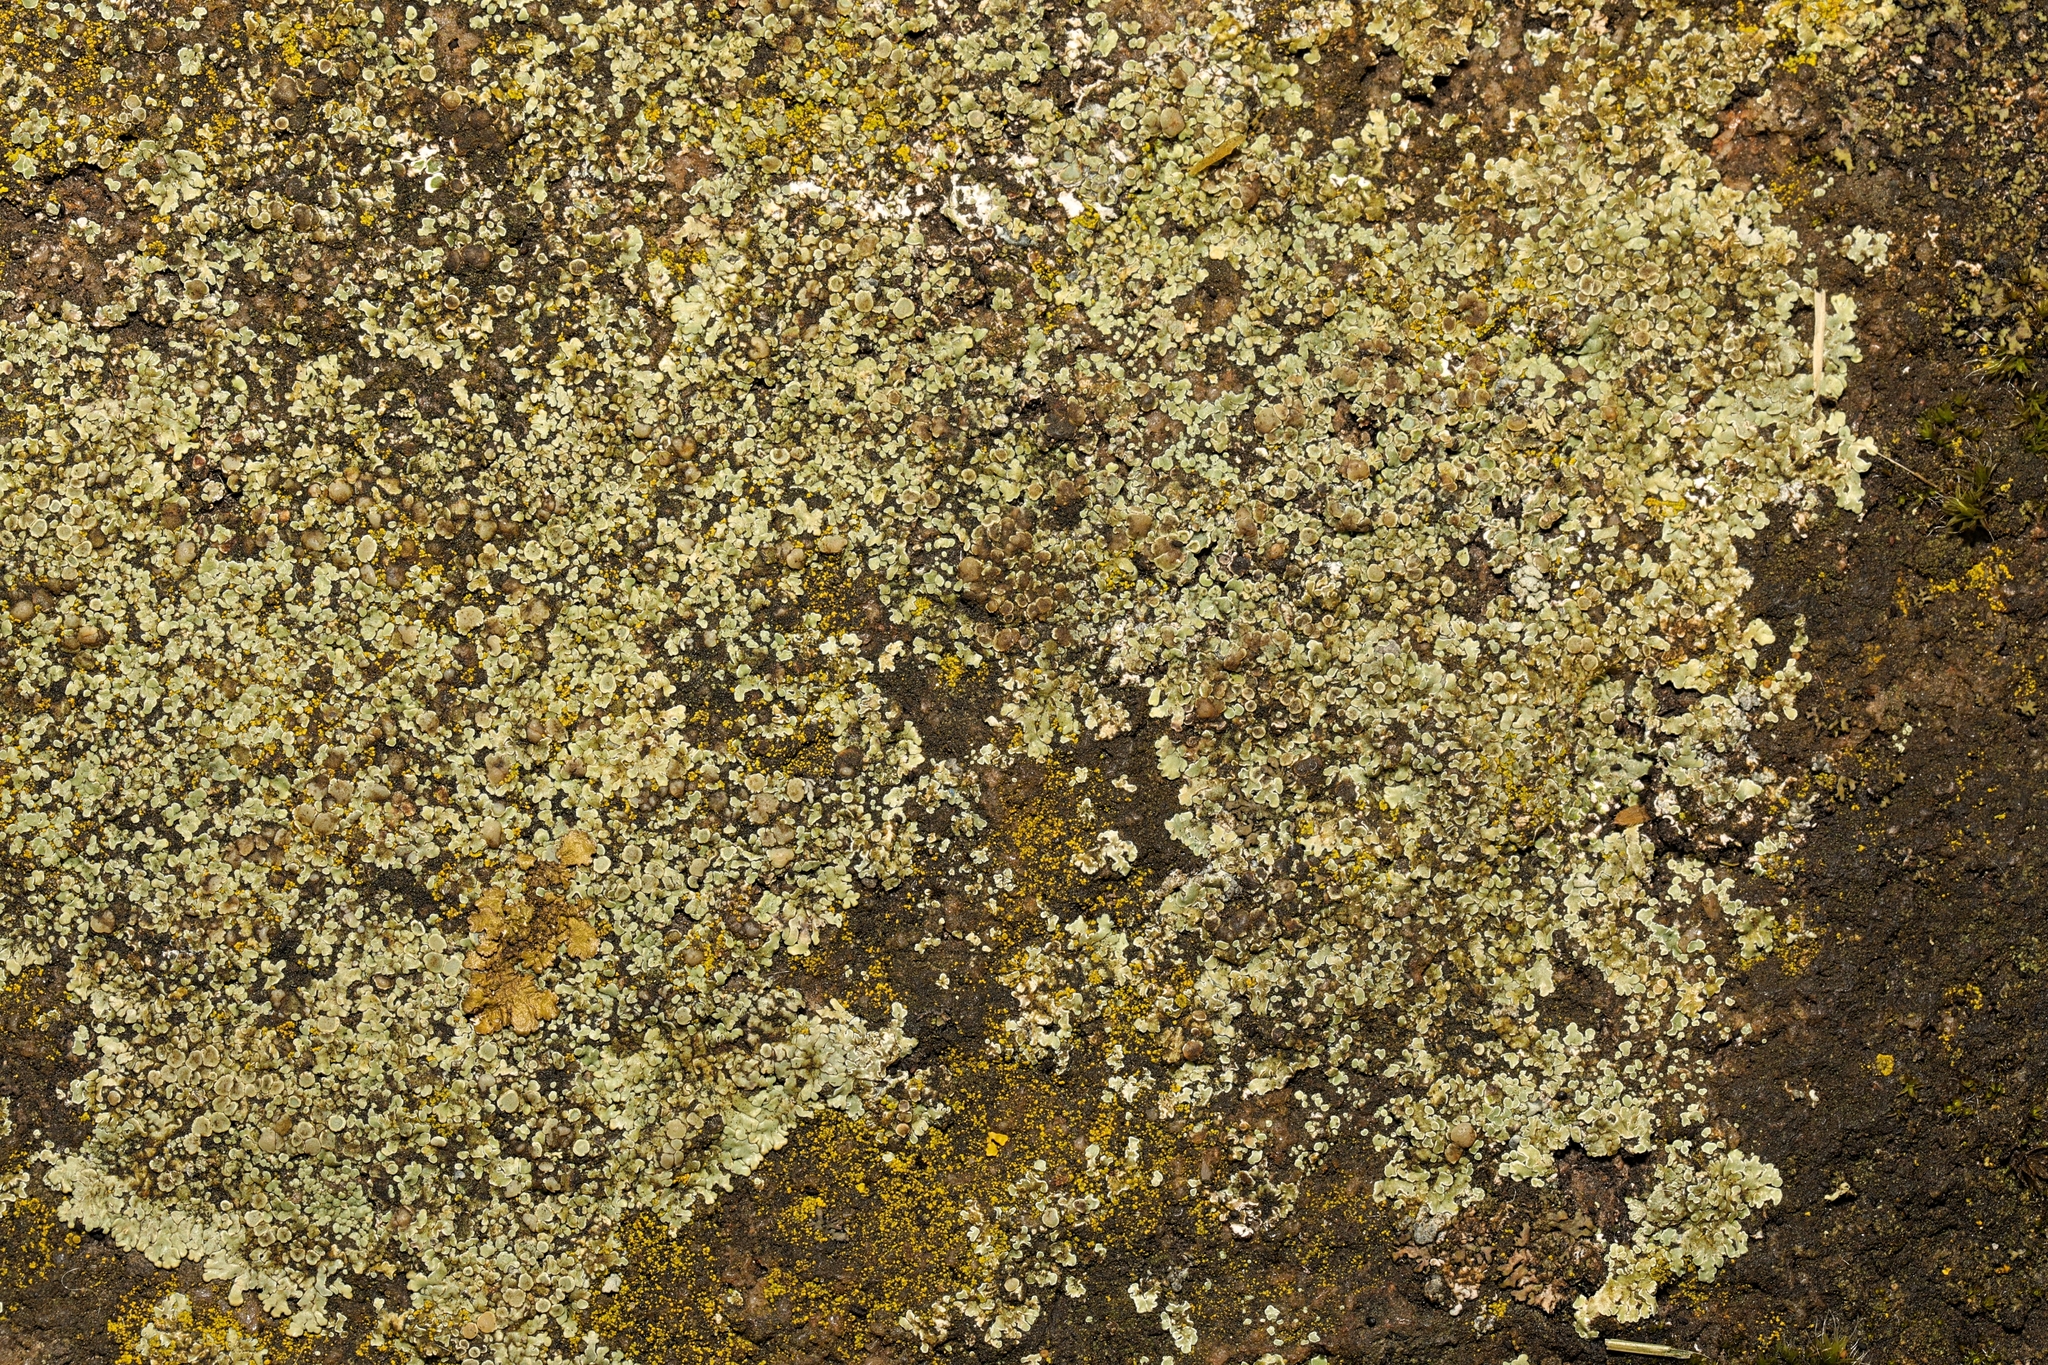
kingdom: Fungi
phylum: Ascomycota
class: Lecanoromycetes
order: Lecanorales
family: Lecanoraceae
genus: Protoparmeliopsis
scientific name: Protoparmeliopsis muralis
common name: Stonewall rim lichen
